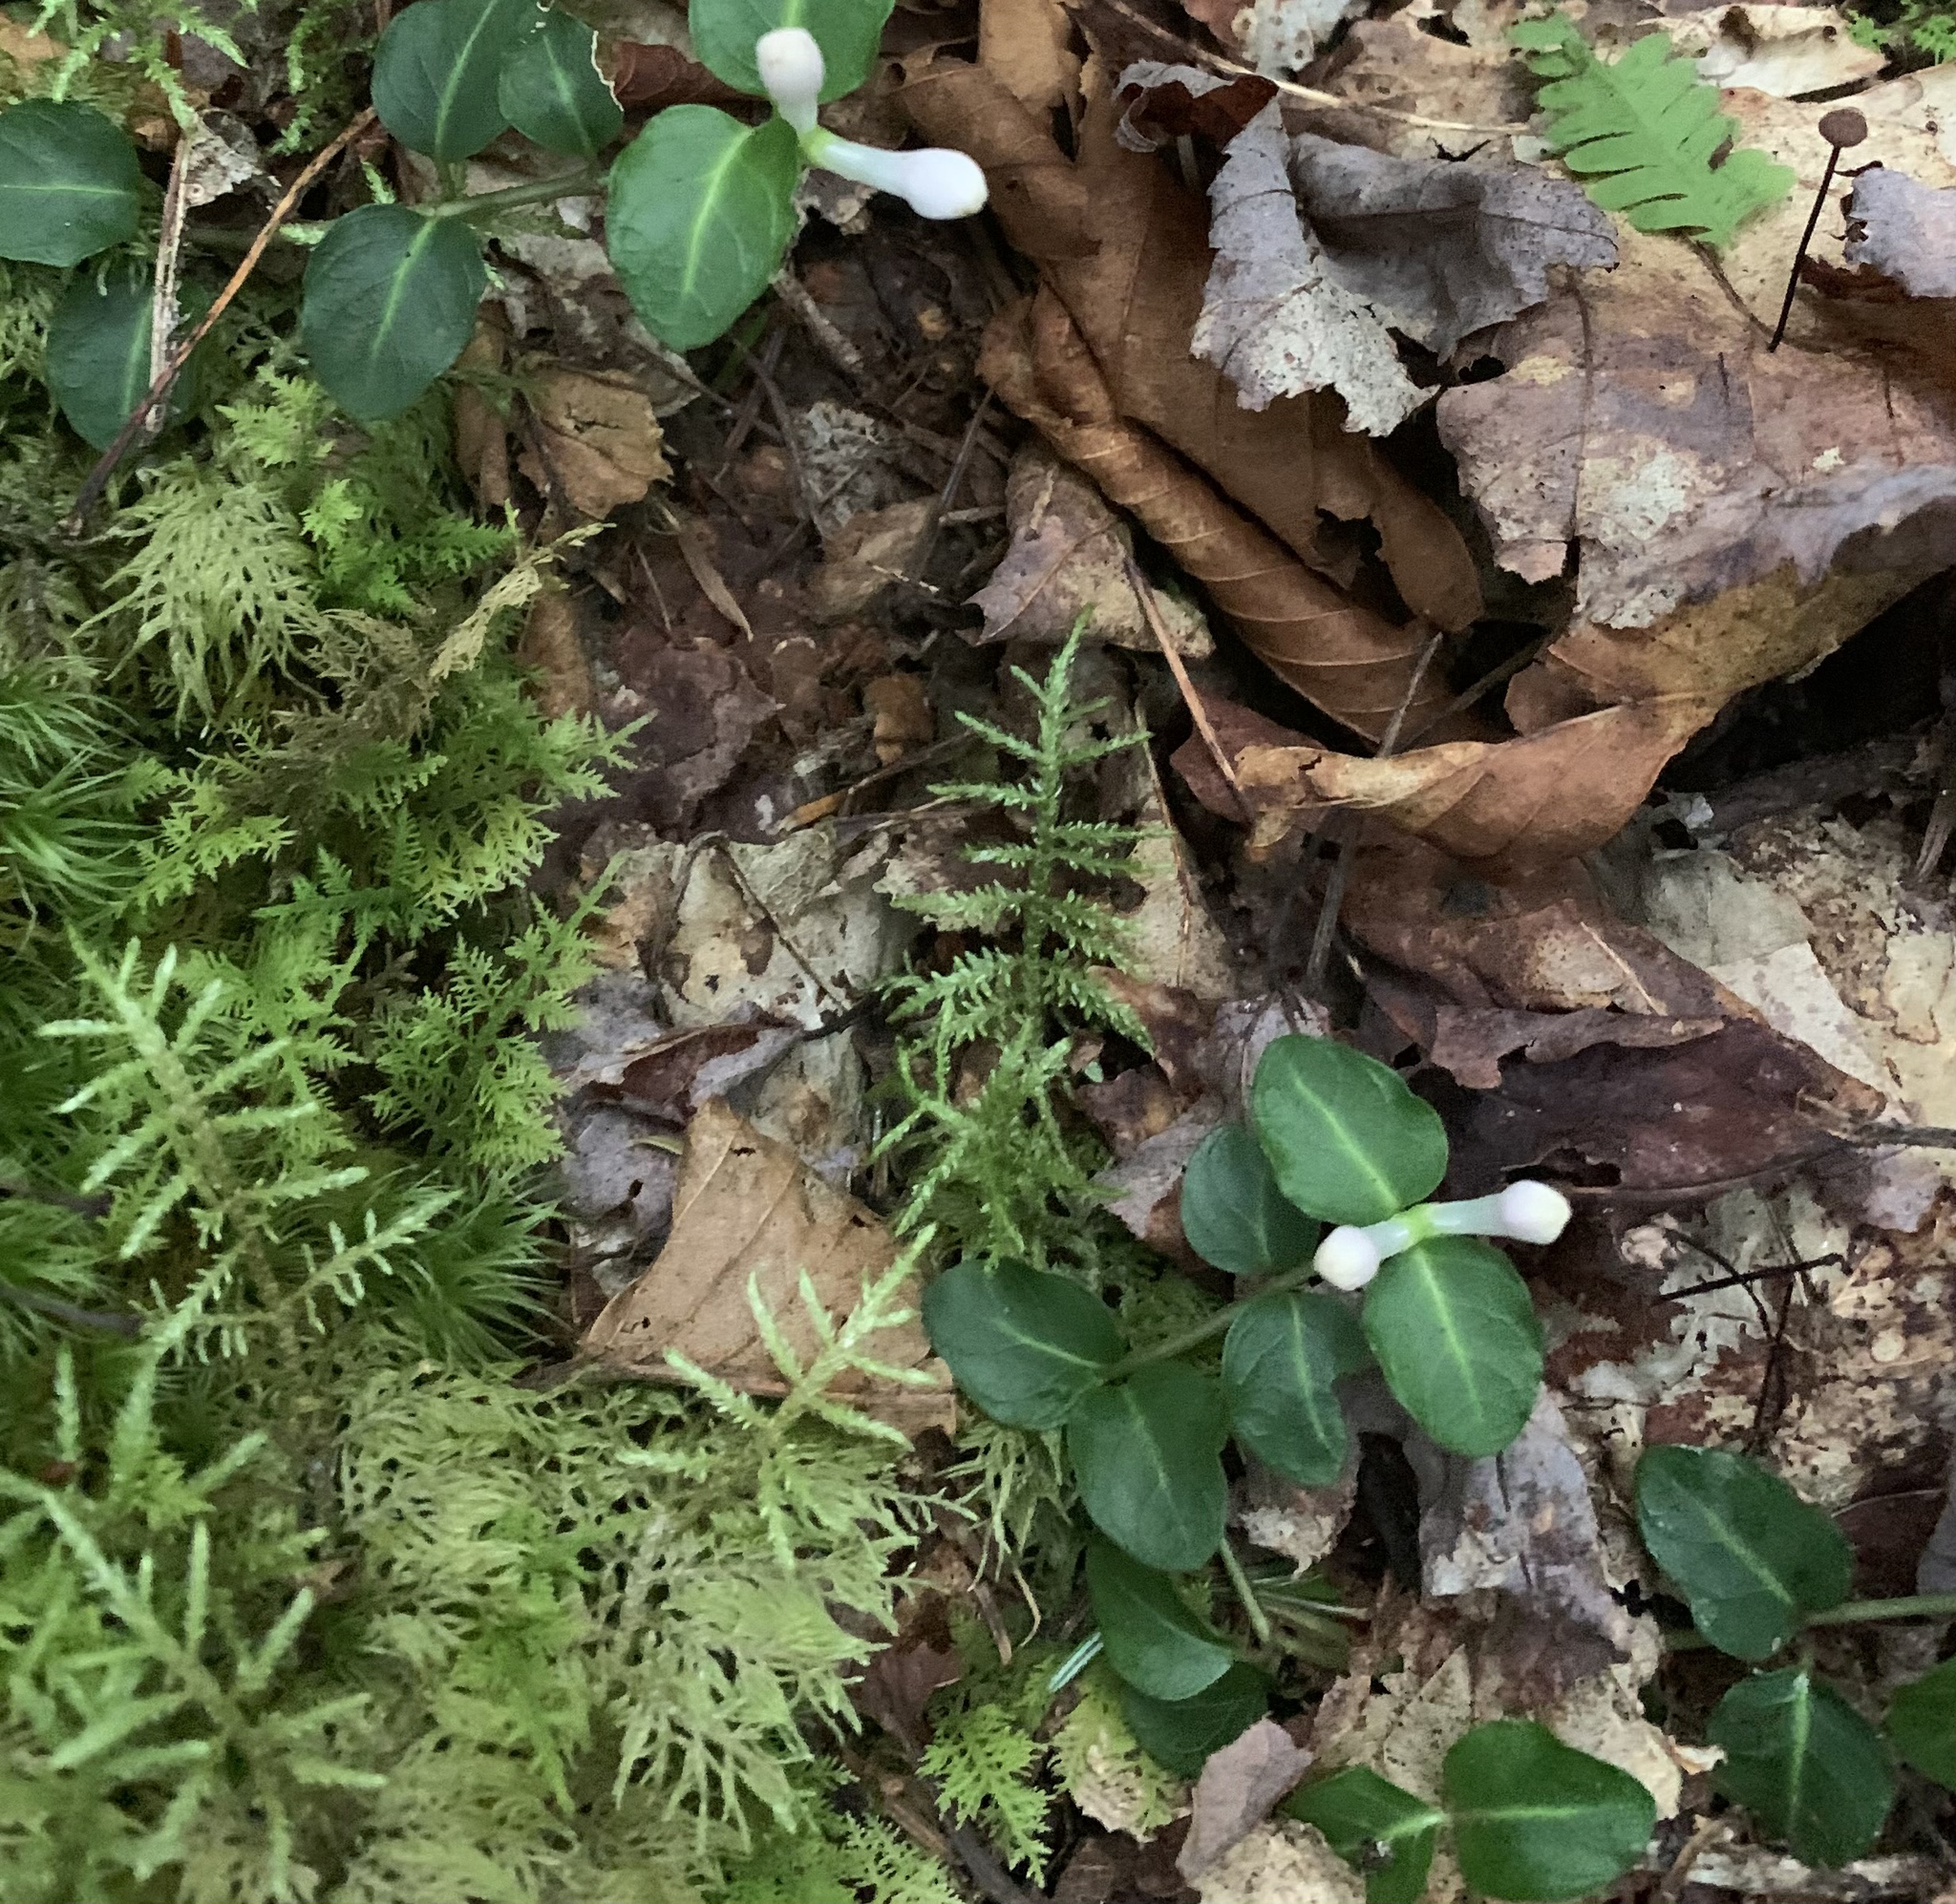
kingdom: Plantae
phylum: Tracheophyta
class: Magnoliopsida
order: Gentianales
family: Rubiaceae
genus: Mitchella
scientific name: Mitchella repens
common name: Partridge-berry
